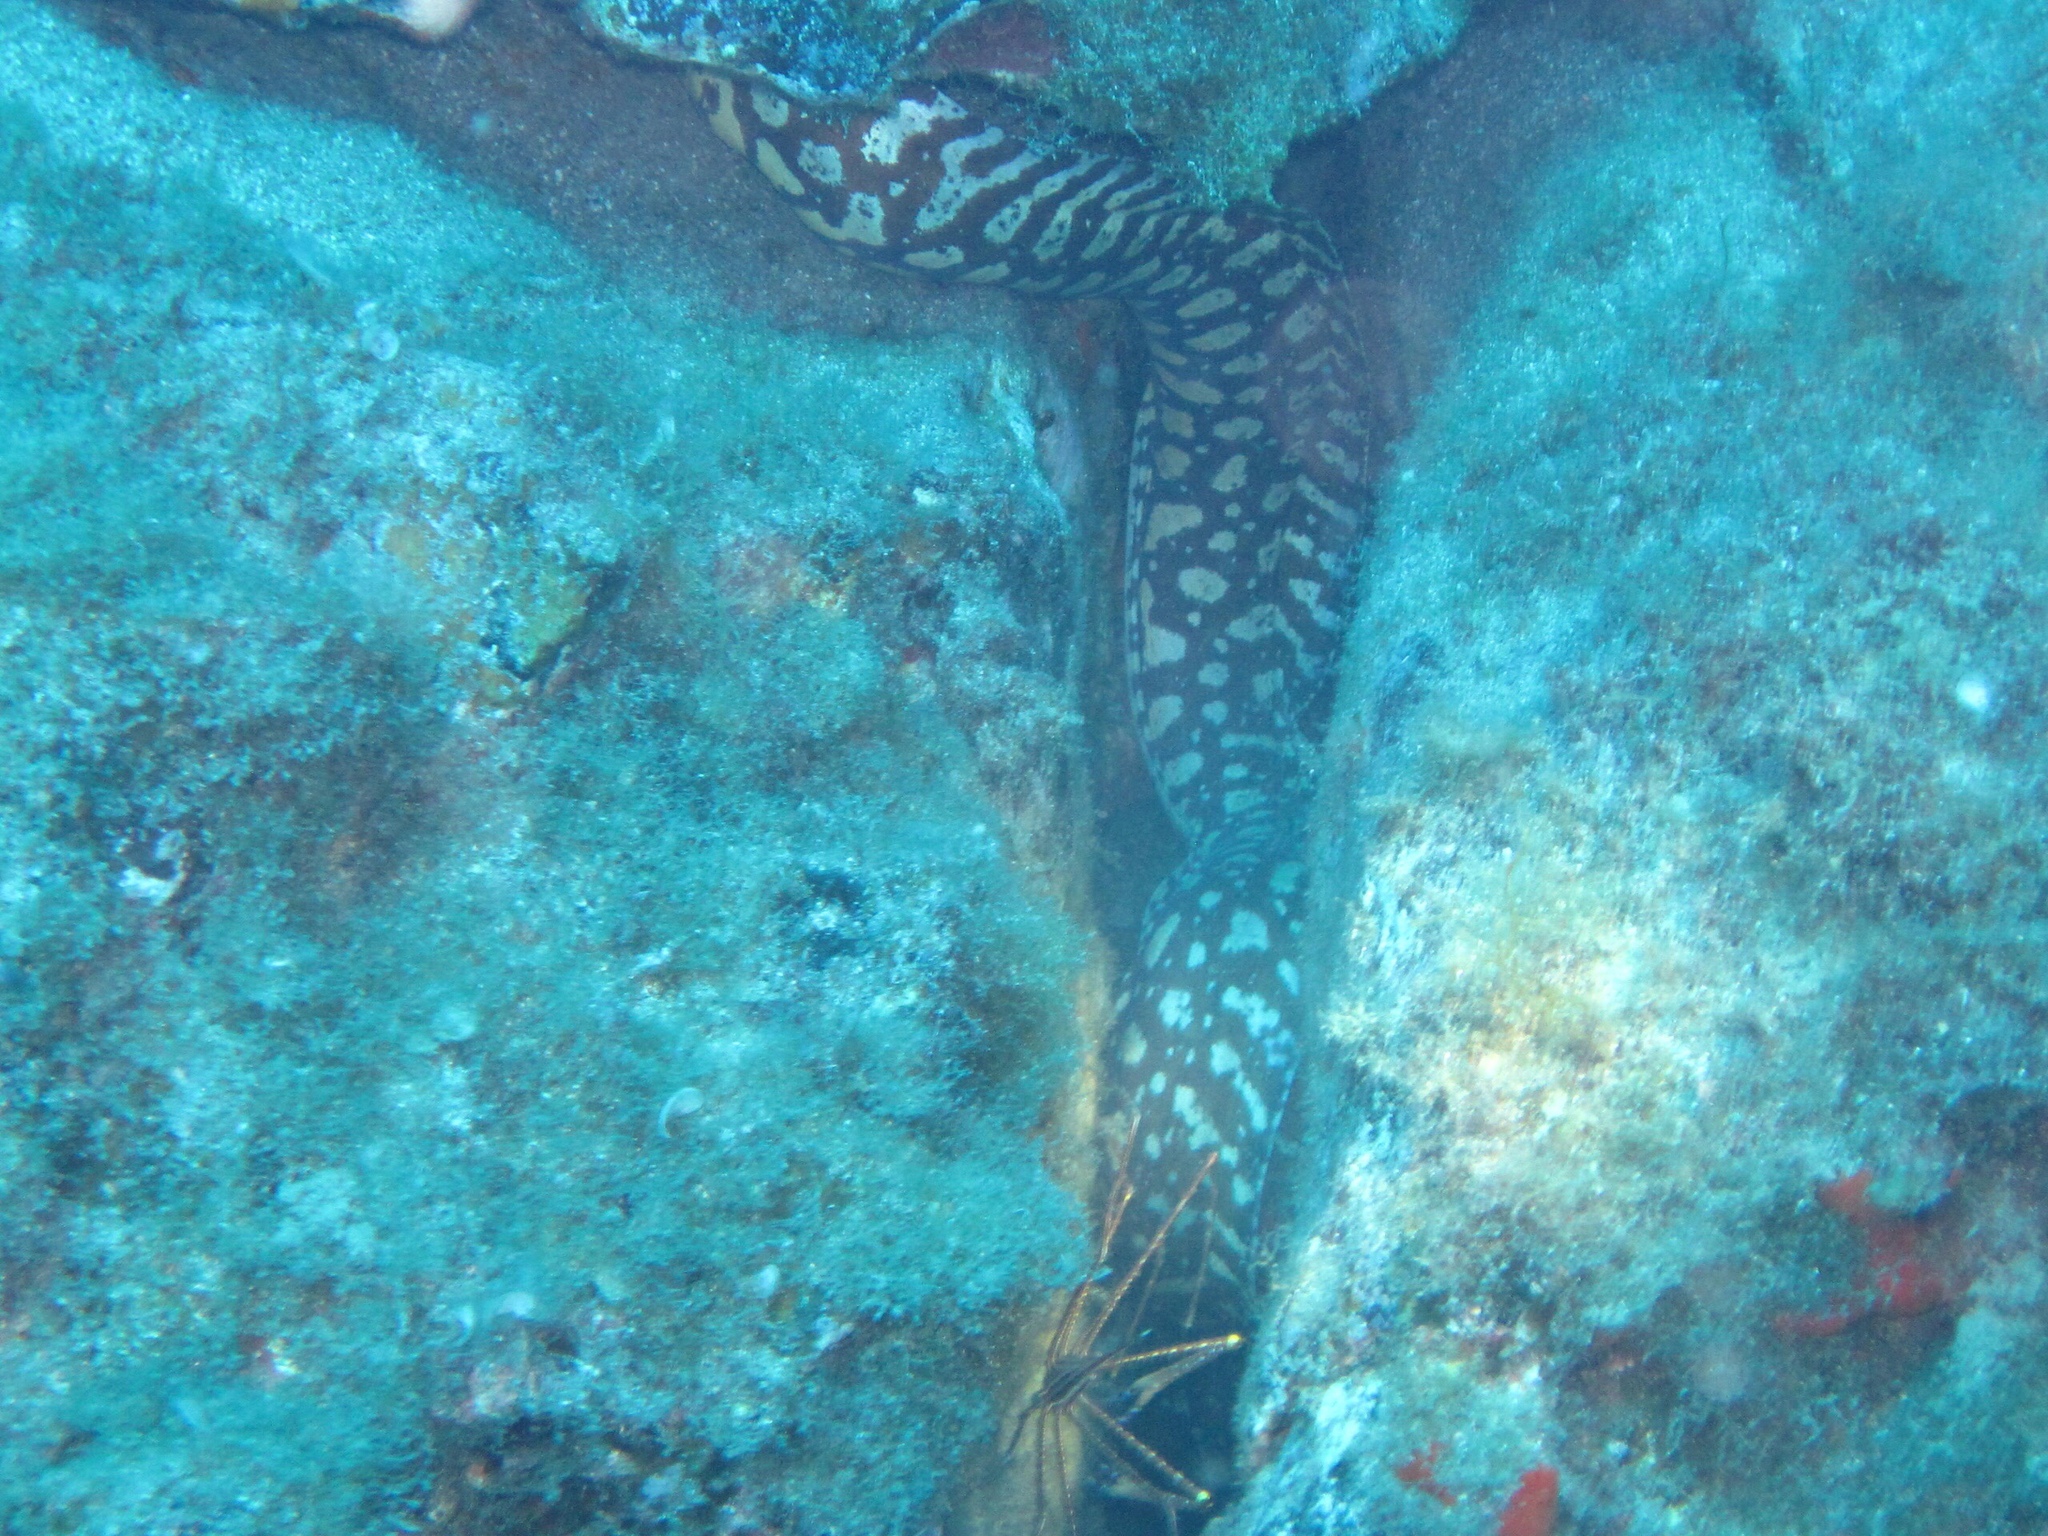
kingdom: Animalia
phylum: Chordata
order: Anguilliformes
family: Muraenidae
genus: Enchelycore
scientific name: Enchelycore anatina
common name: Fangtooth moray
